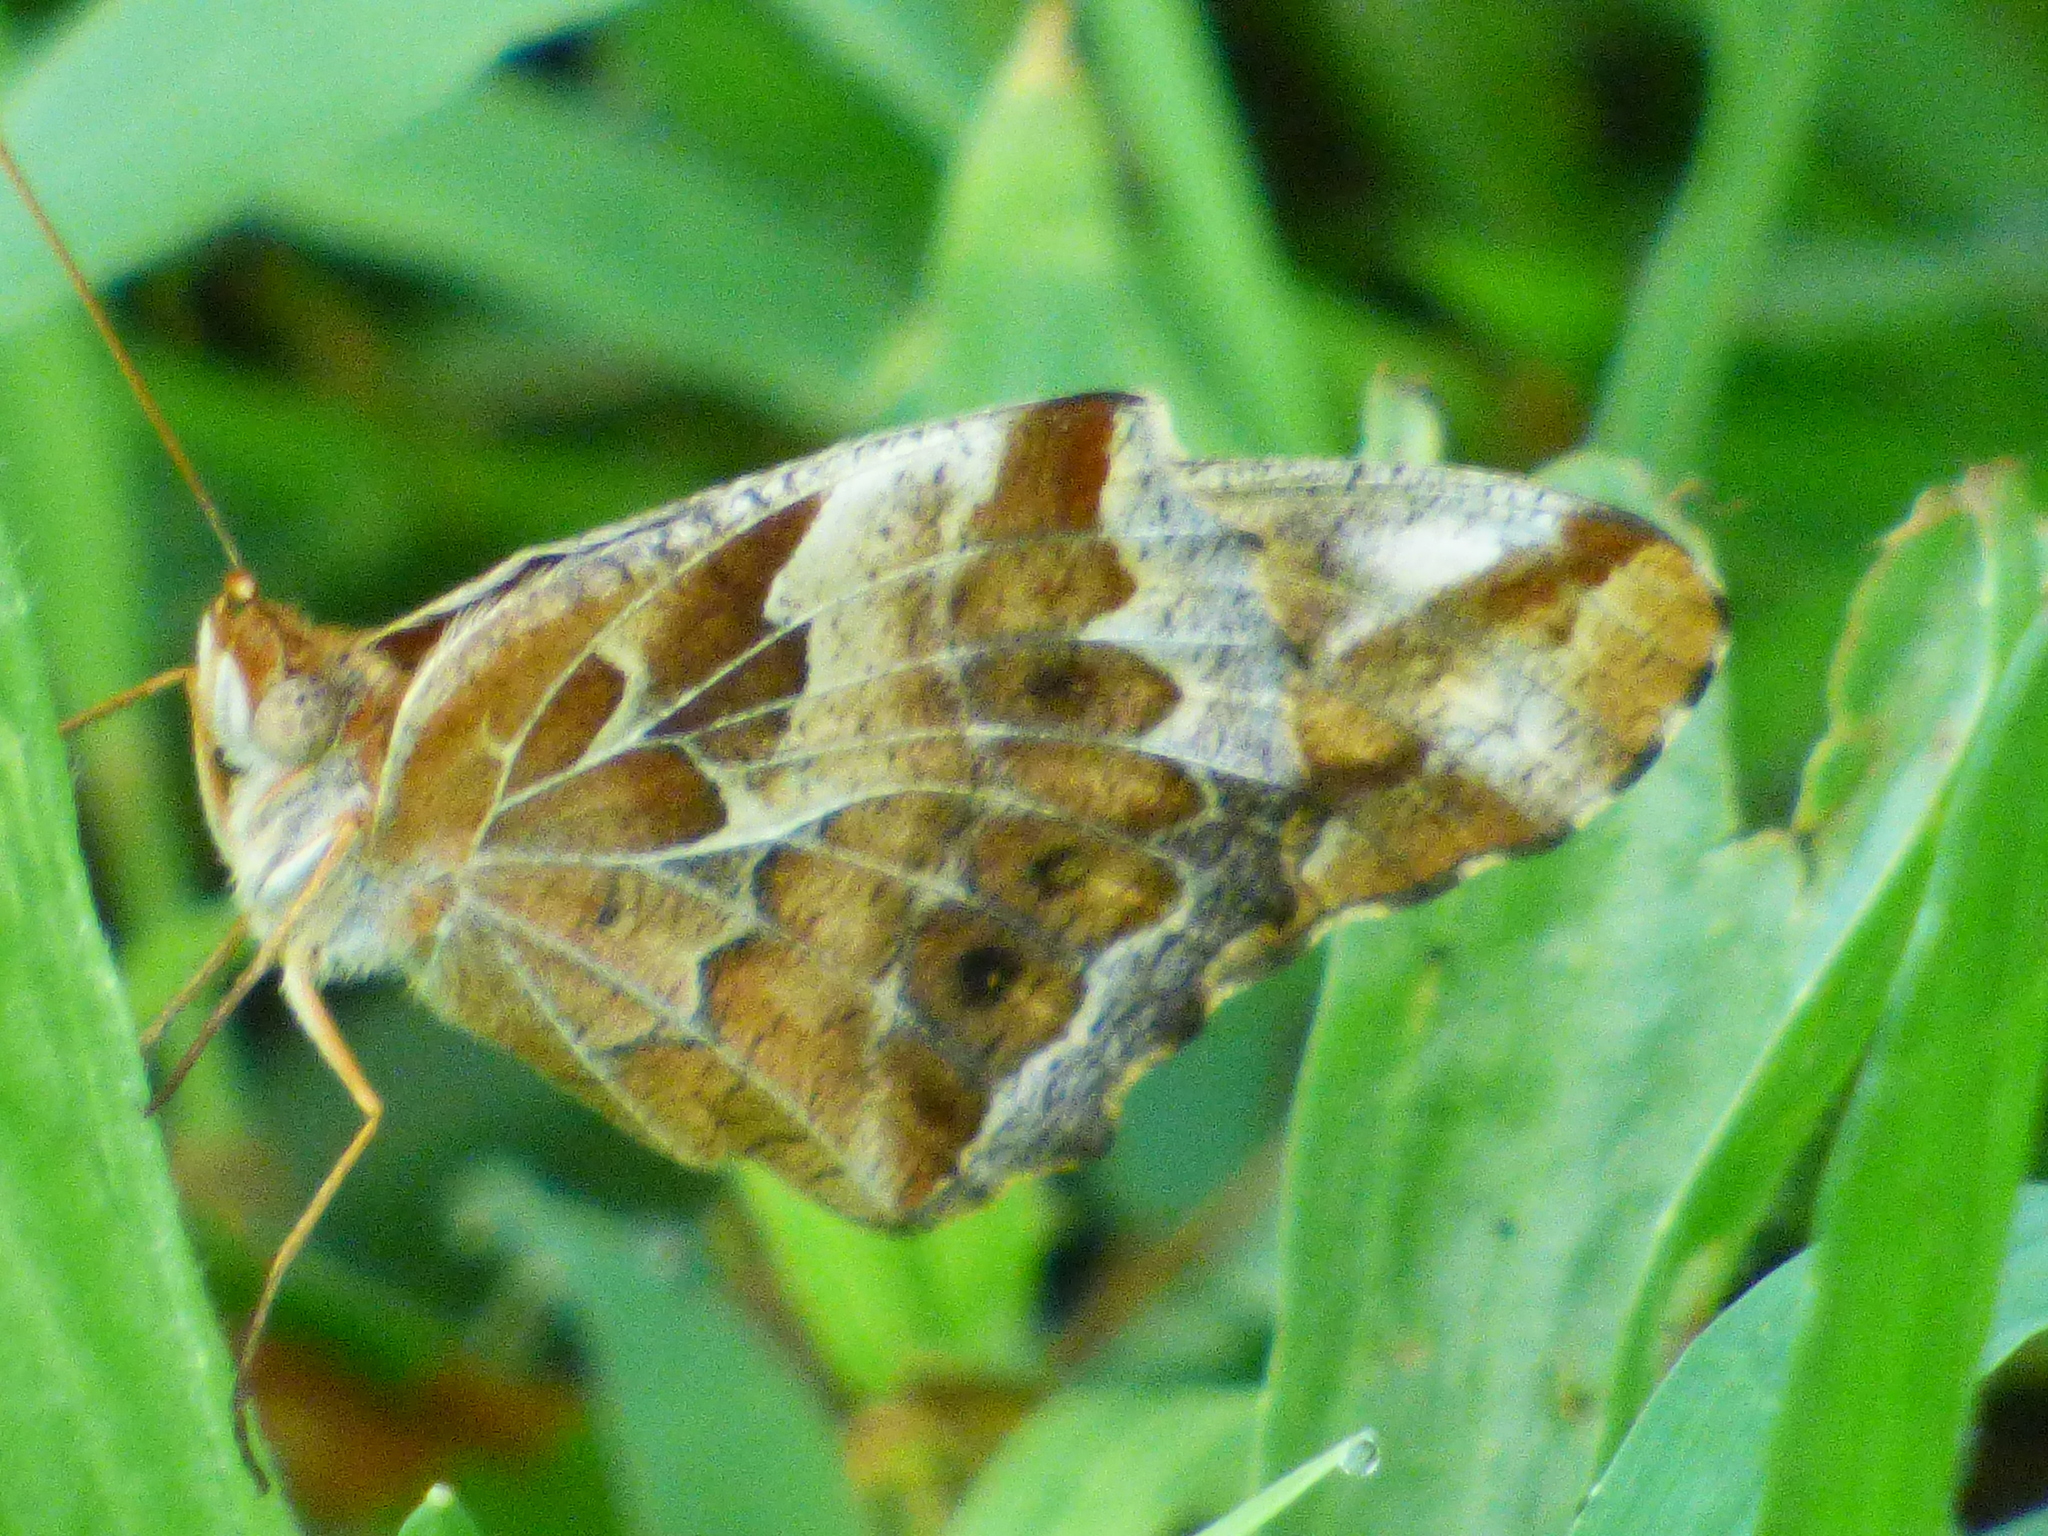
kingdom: Animalia
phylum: Arthropoda
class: Insecta
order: Lepidoptera
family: Nymphalidae
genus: Euptoieta
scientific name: Euptoieta claudia
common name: Variegated fritillary
